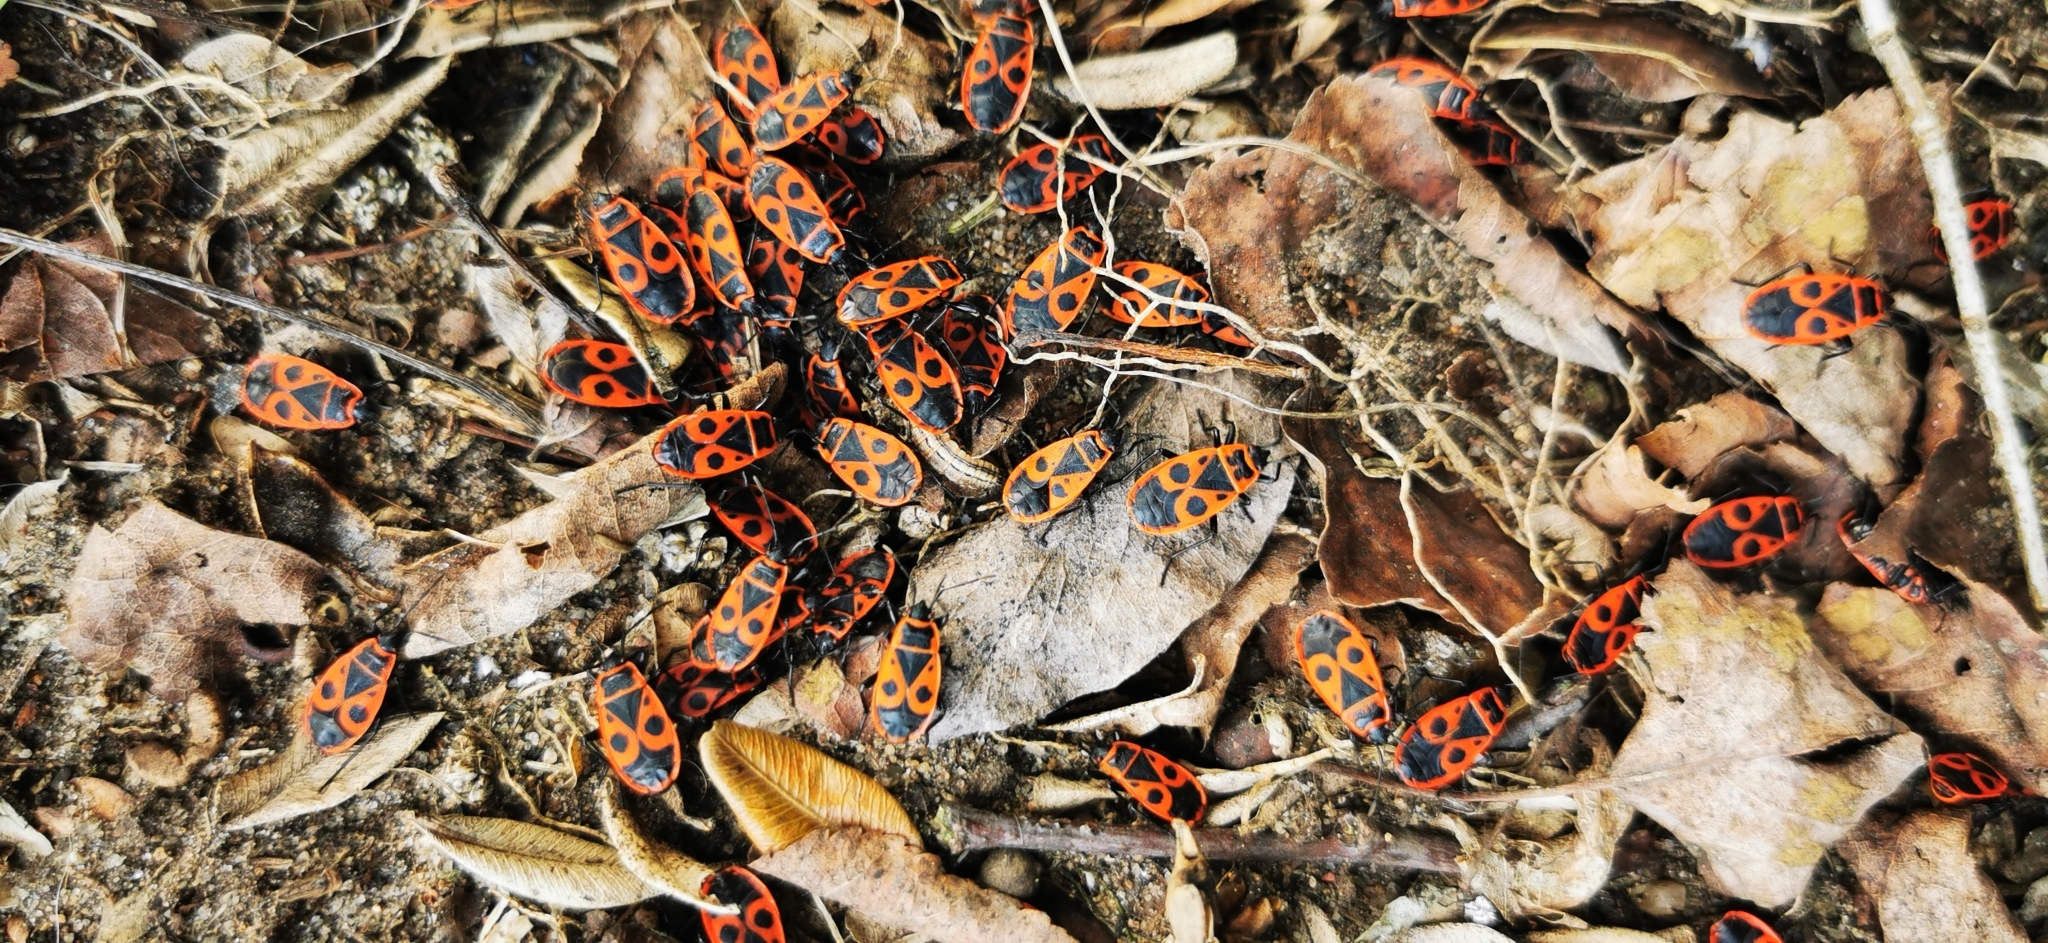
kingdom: Animalia
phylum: Arthropoda
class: Insecta
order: Hemiptera
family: Pyrrhocoridae
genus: Pyrrhocoris
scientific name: Pyrrhocoris apterus
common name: Firebug
